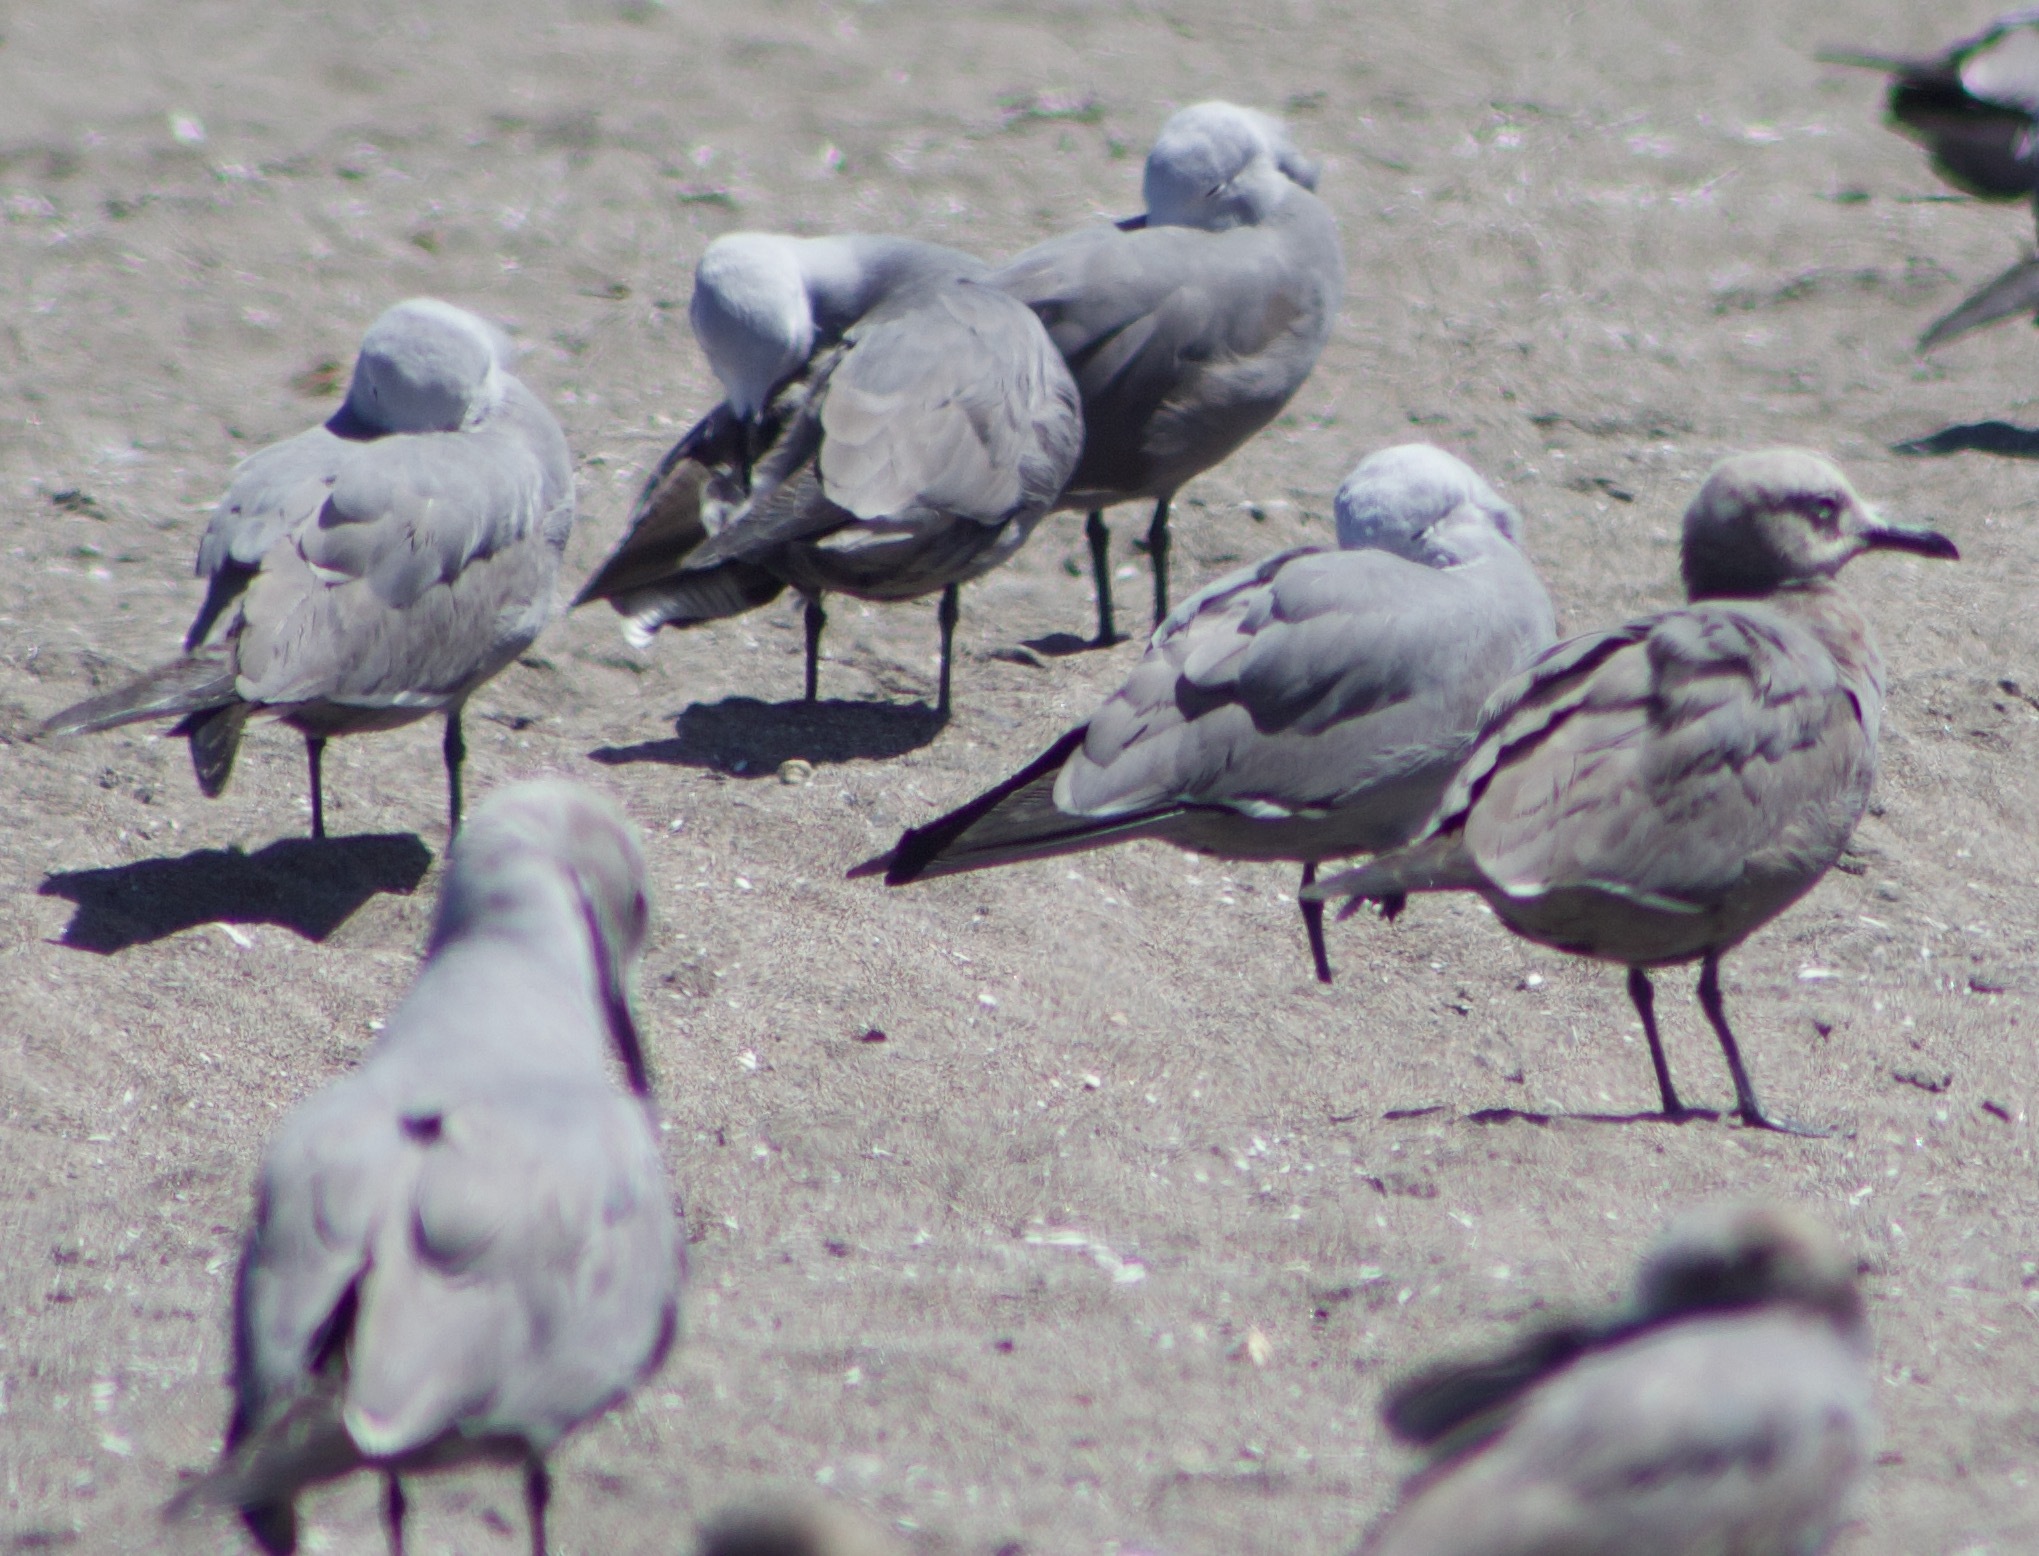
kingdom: Animalia
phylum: Chordata
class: Aves
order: Charadriiformes
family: Laridae
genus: Leucophaeus
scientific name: Leucophaeus modestus
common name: Gray gull
